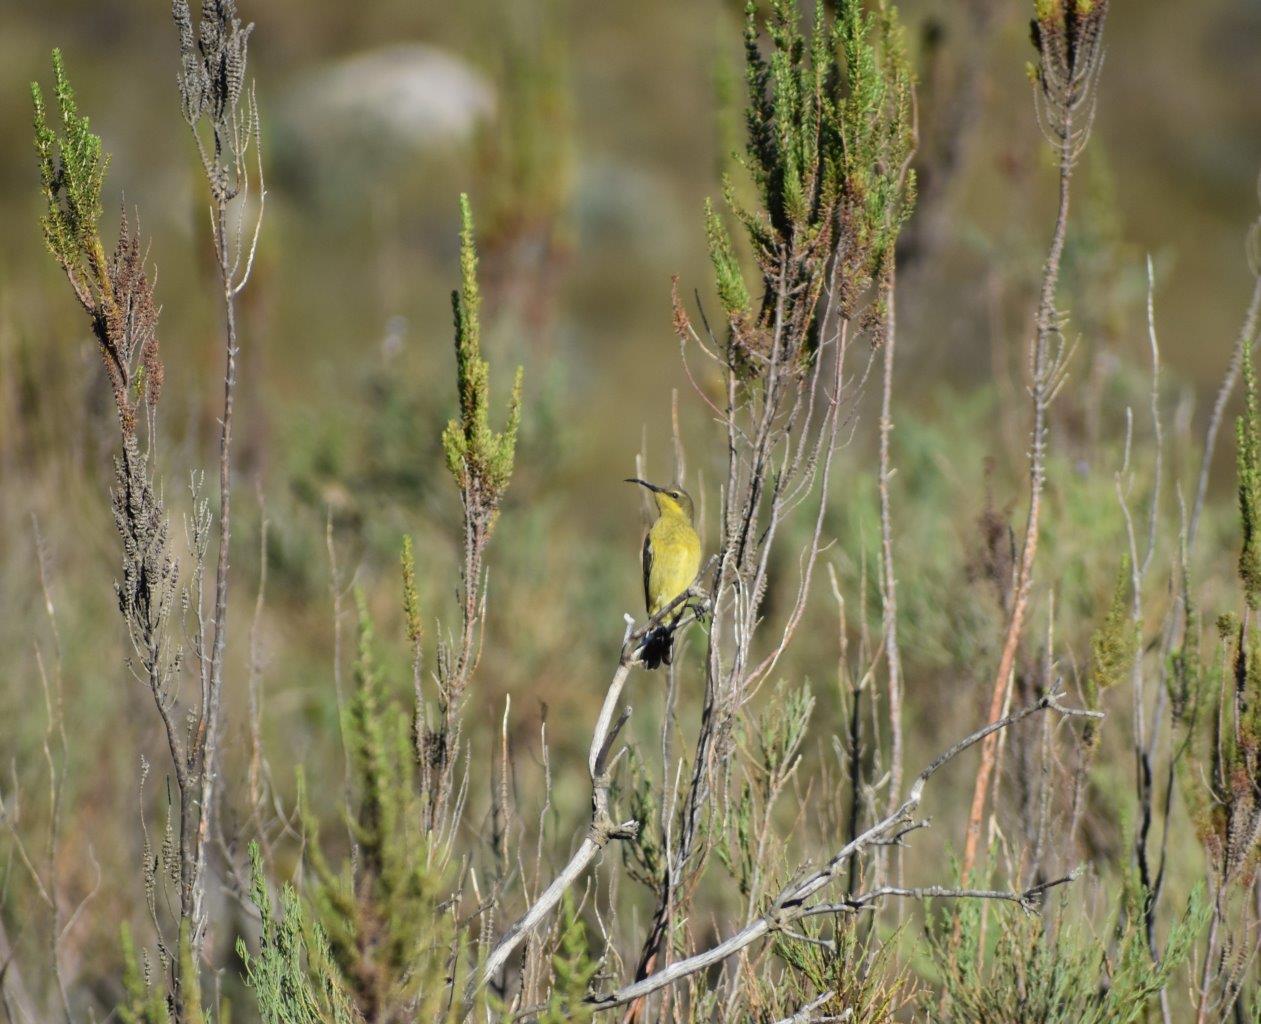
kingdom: Animalia
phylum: Chordata
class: Aves
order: Passeriformes
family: Nectariniidae
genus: Nectarinia
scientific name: Nectarinia famosa
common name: Malachite sunbird
